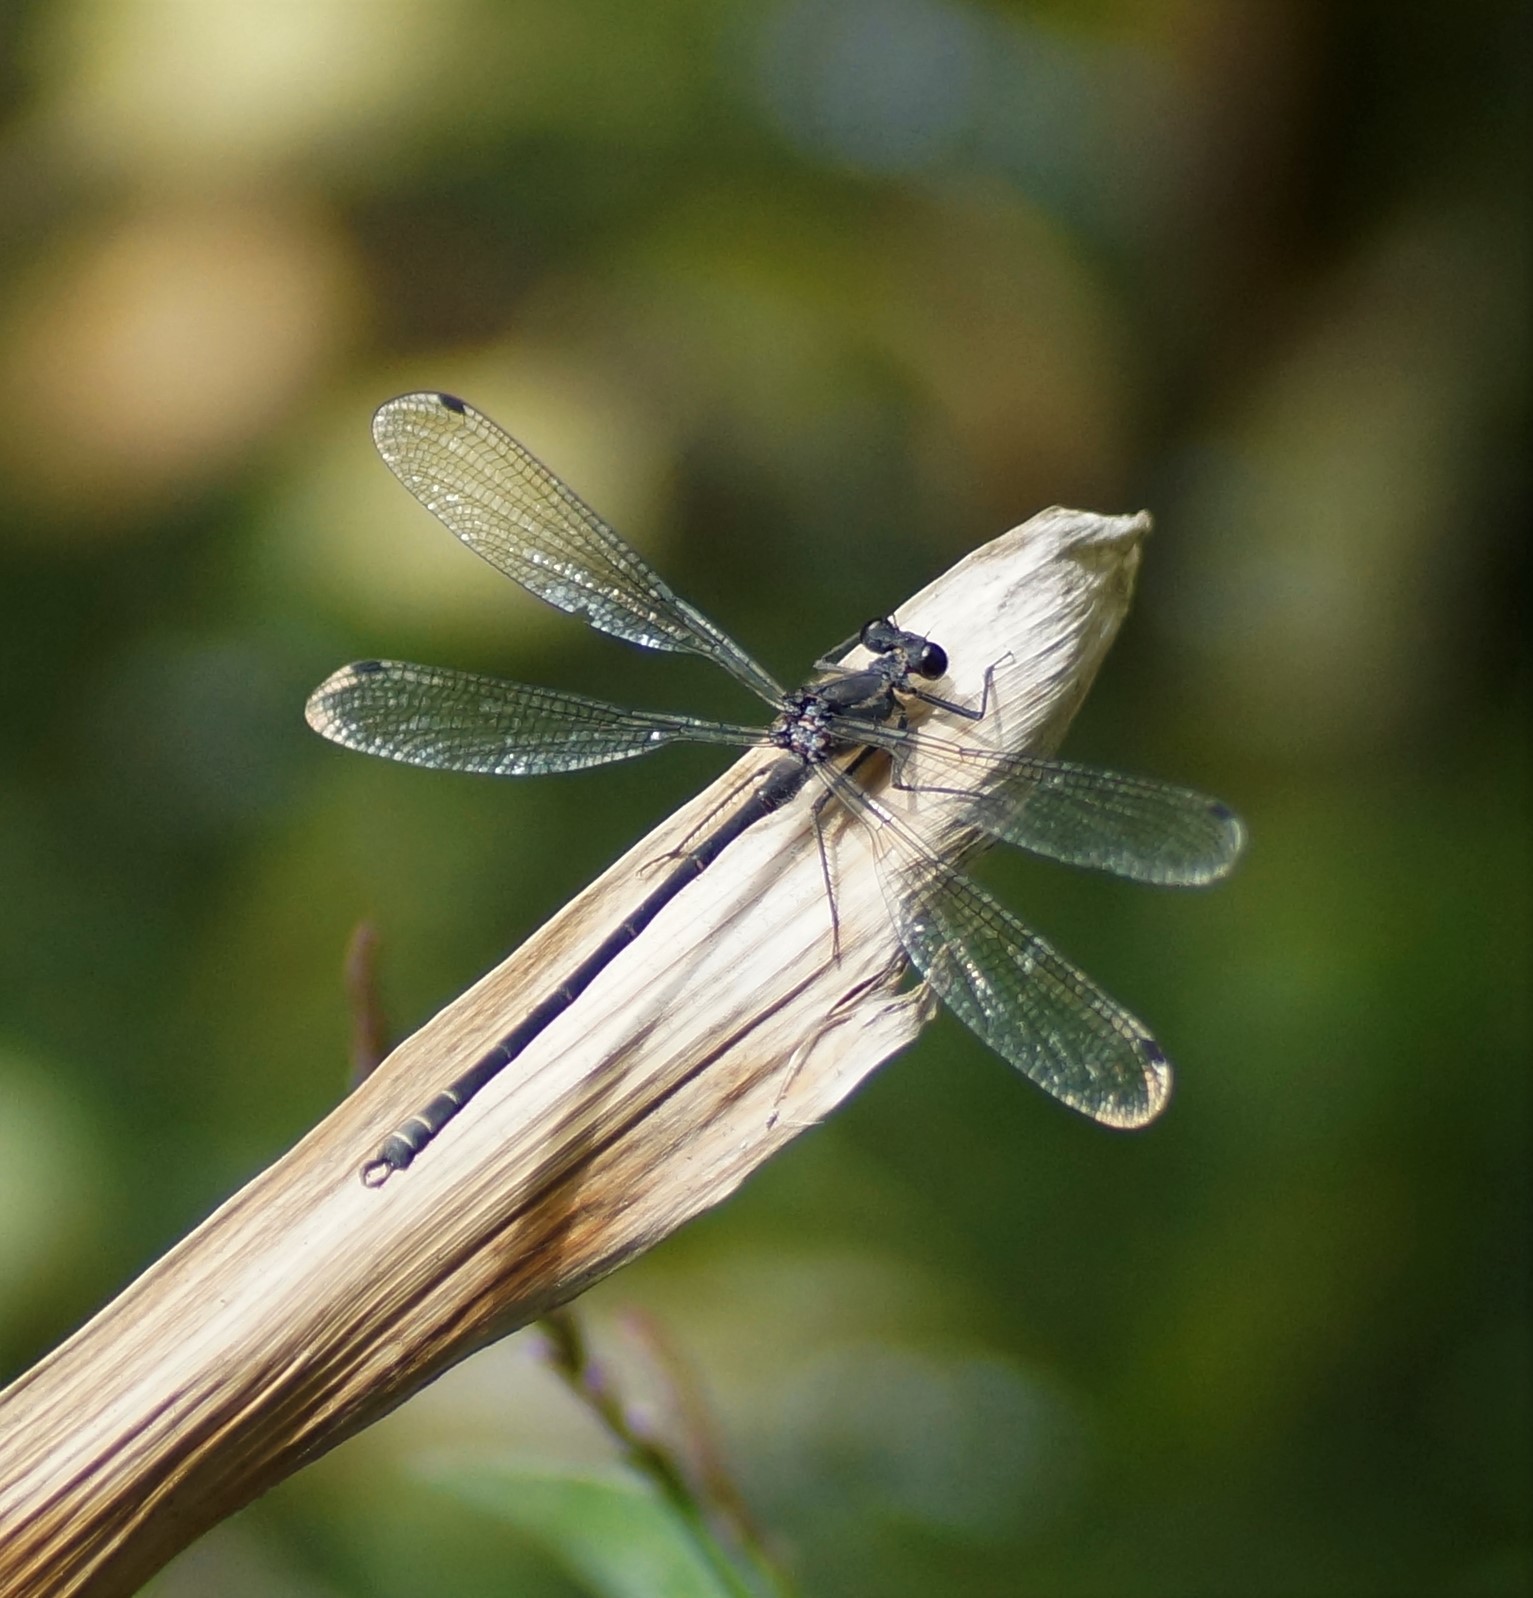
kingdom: Animalia
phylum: Arthropoda
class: Insecta
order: Odonata
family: Argiolestidae
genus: Austroargiolestes
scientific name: Austroargiolestes icteromelas
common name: Common flatwing
